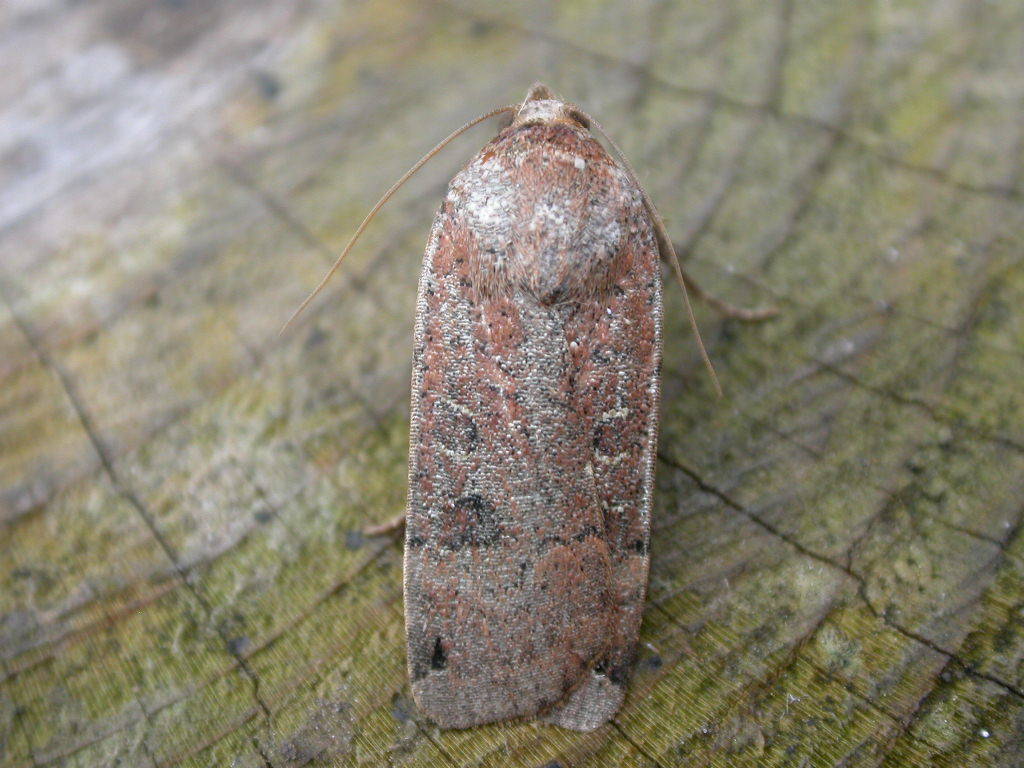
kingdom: Animalia
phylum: Arthropoda
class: Insecta
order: Lepidoptera
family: Noctuidae
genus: Noctua
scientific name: Noctua orbona
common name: Lunar yellow underwing
